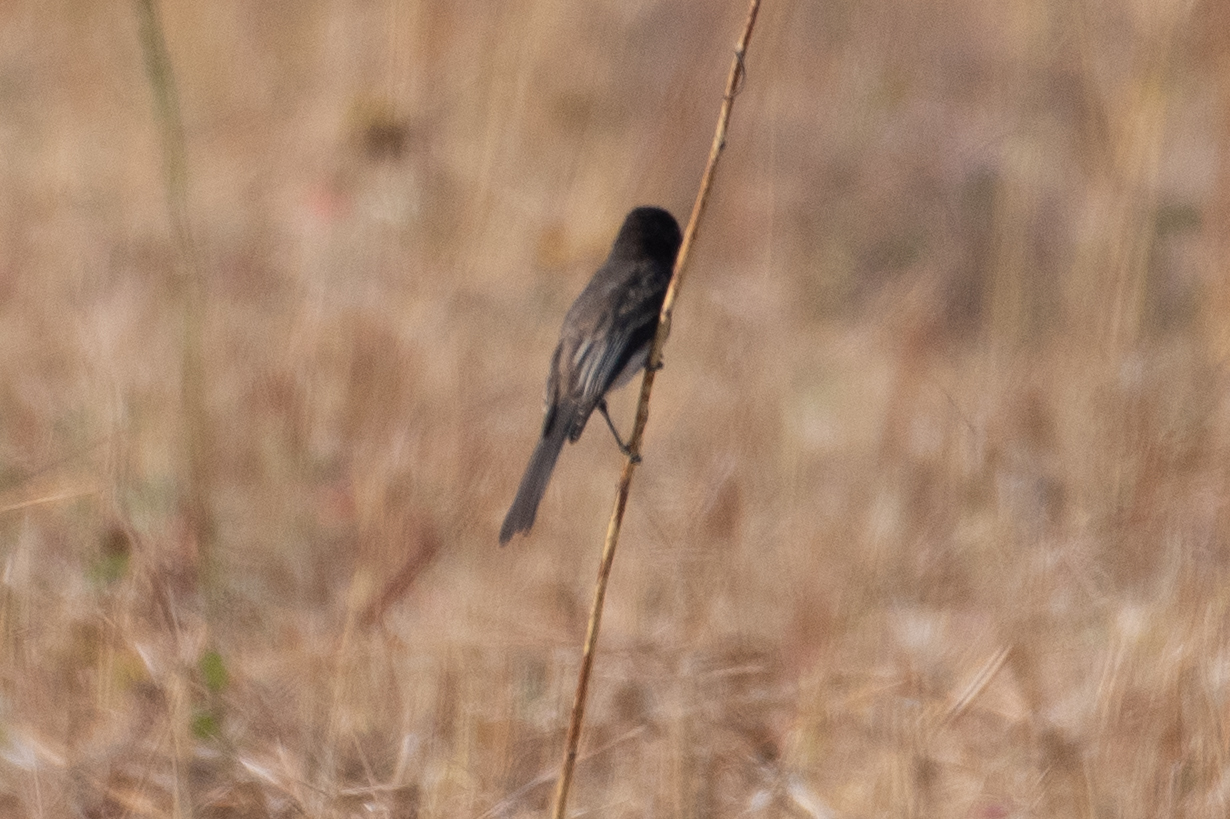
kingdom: Animalia
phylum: Chordata
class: Aves
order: Passeriformes
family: Tyrannidae
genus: Sayornis
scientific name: Sayornis nigricans
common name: Black phoebe
